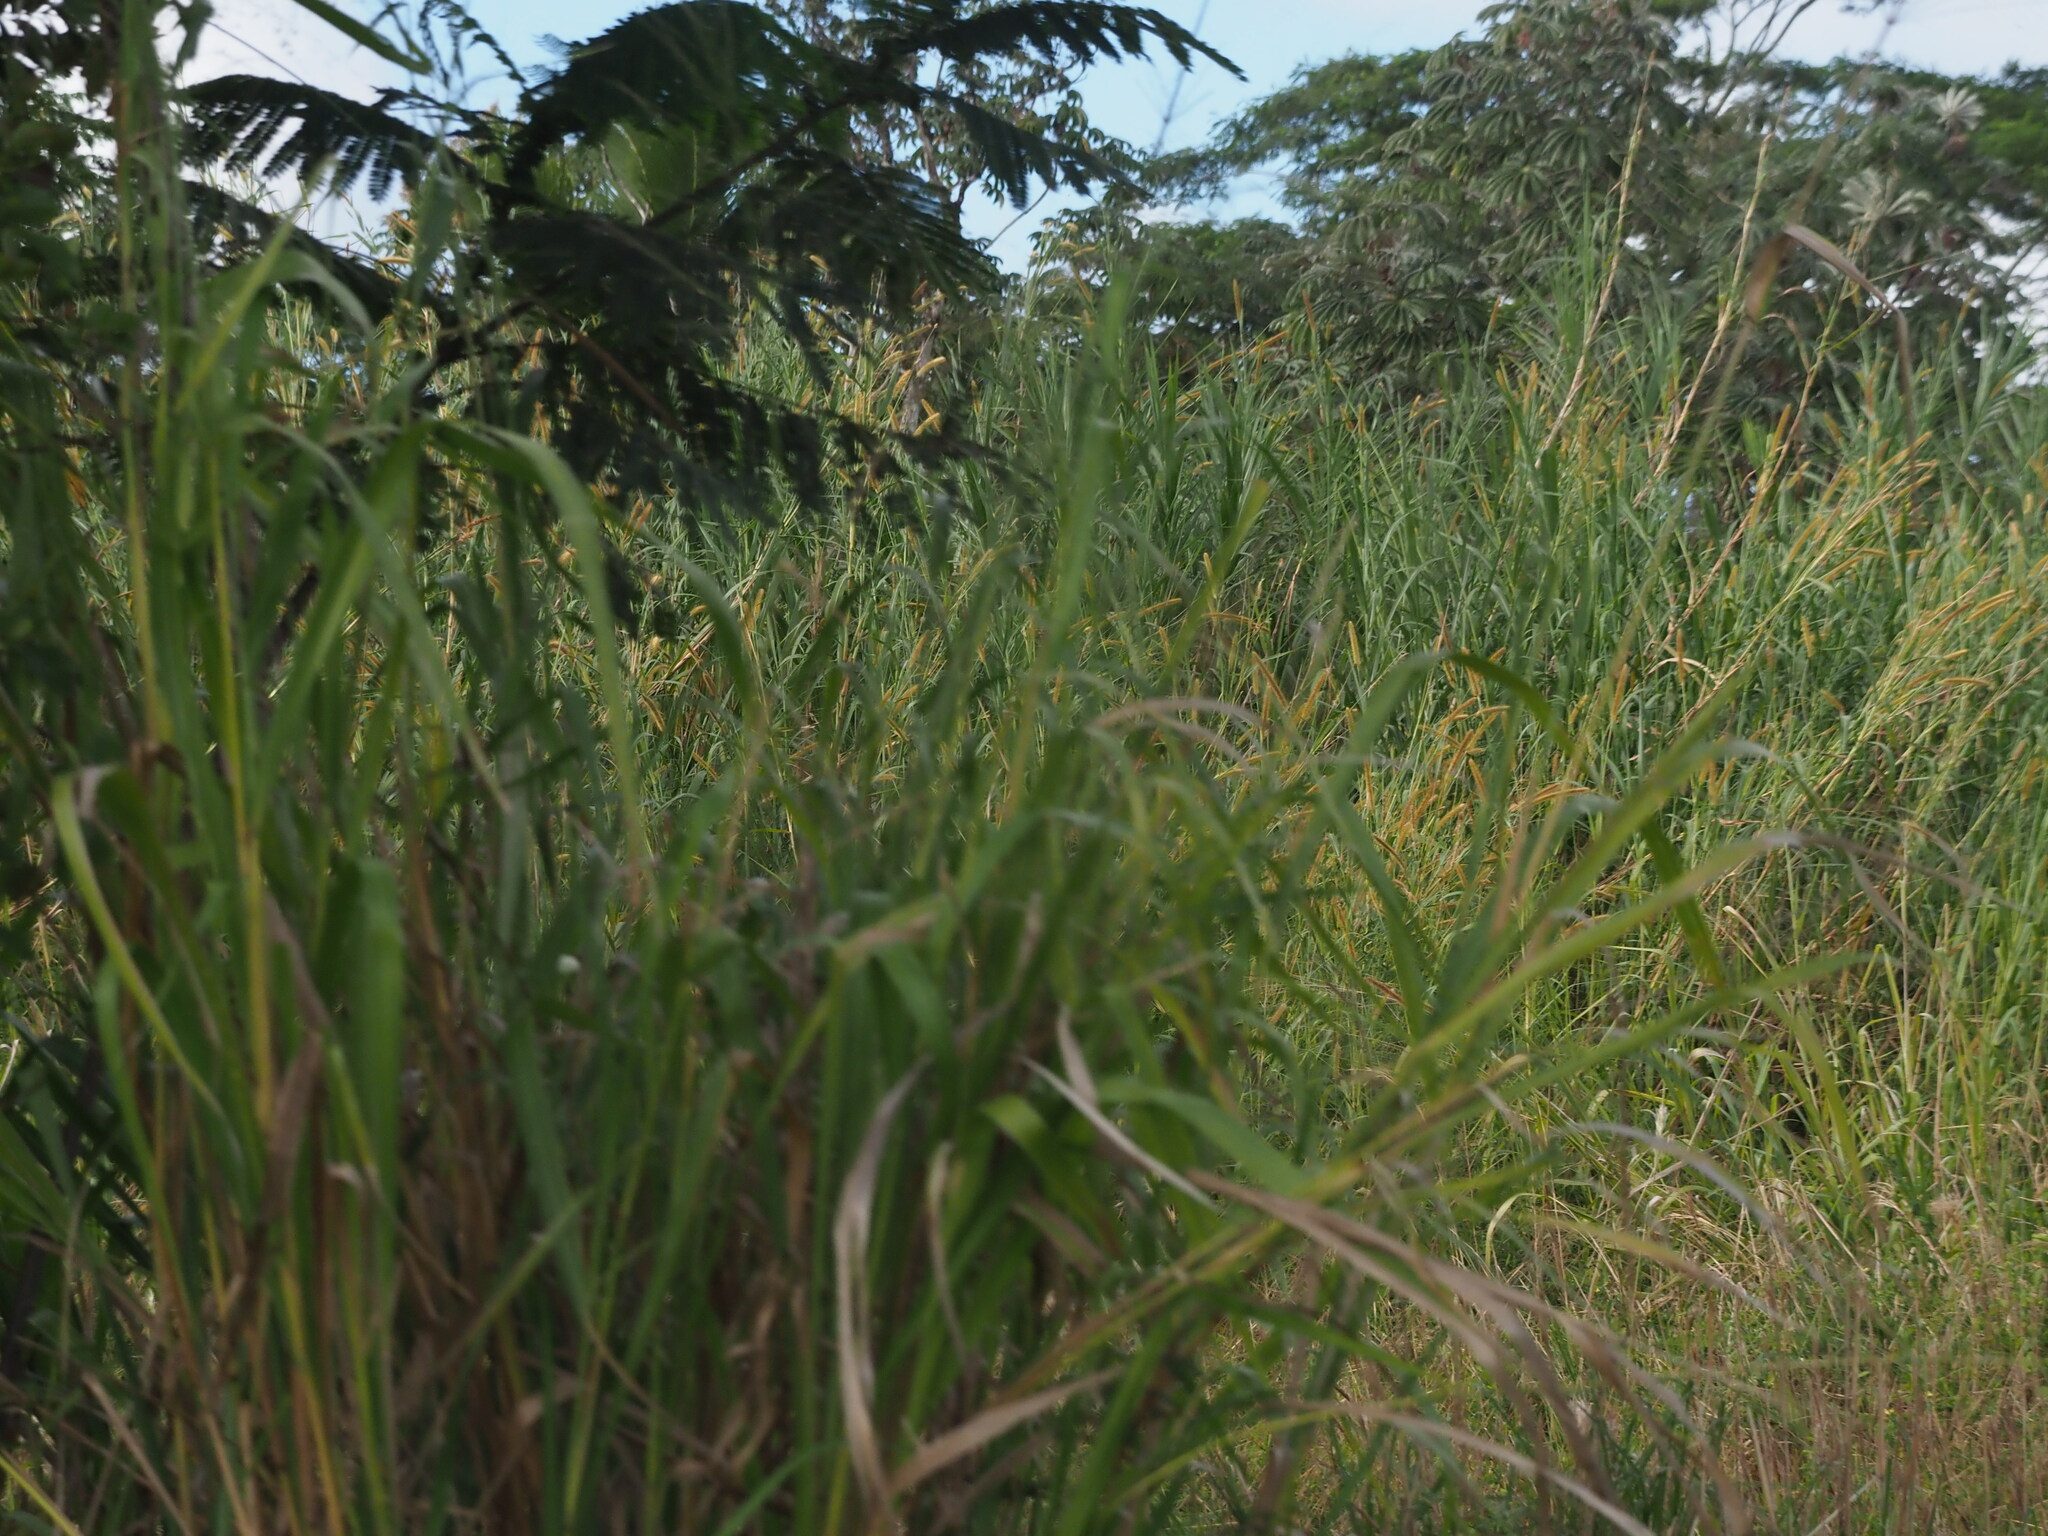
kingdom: Plantae
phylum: Tracheophyta
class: Liliopsida
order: Poales
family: Poaceae
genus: Cenchrus
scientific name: Cenchrus purpureus
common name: Elephant grass
